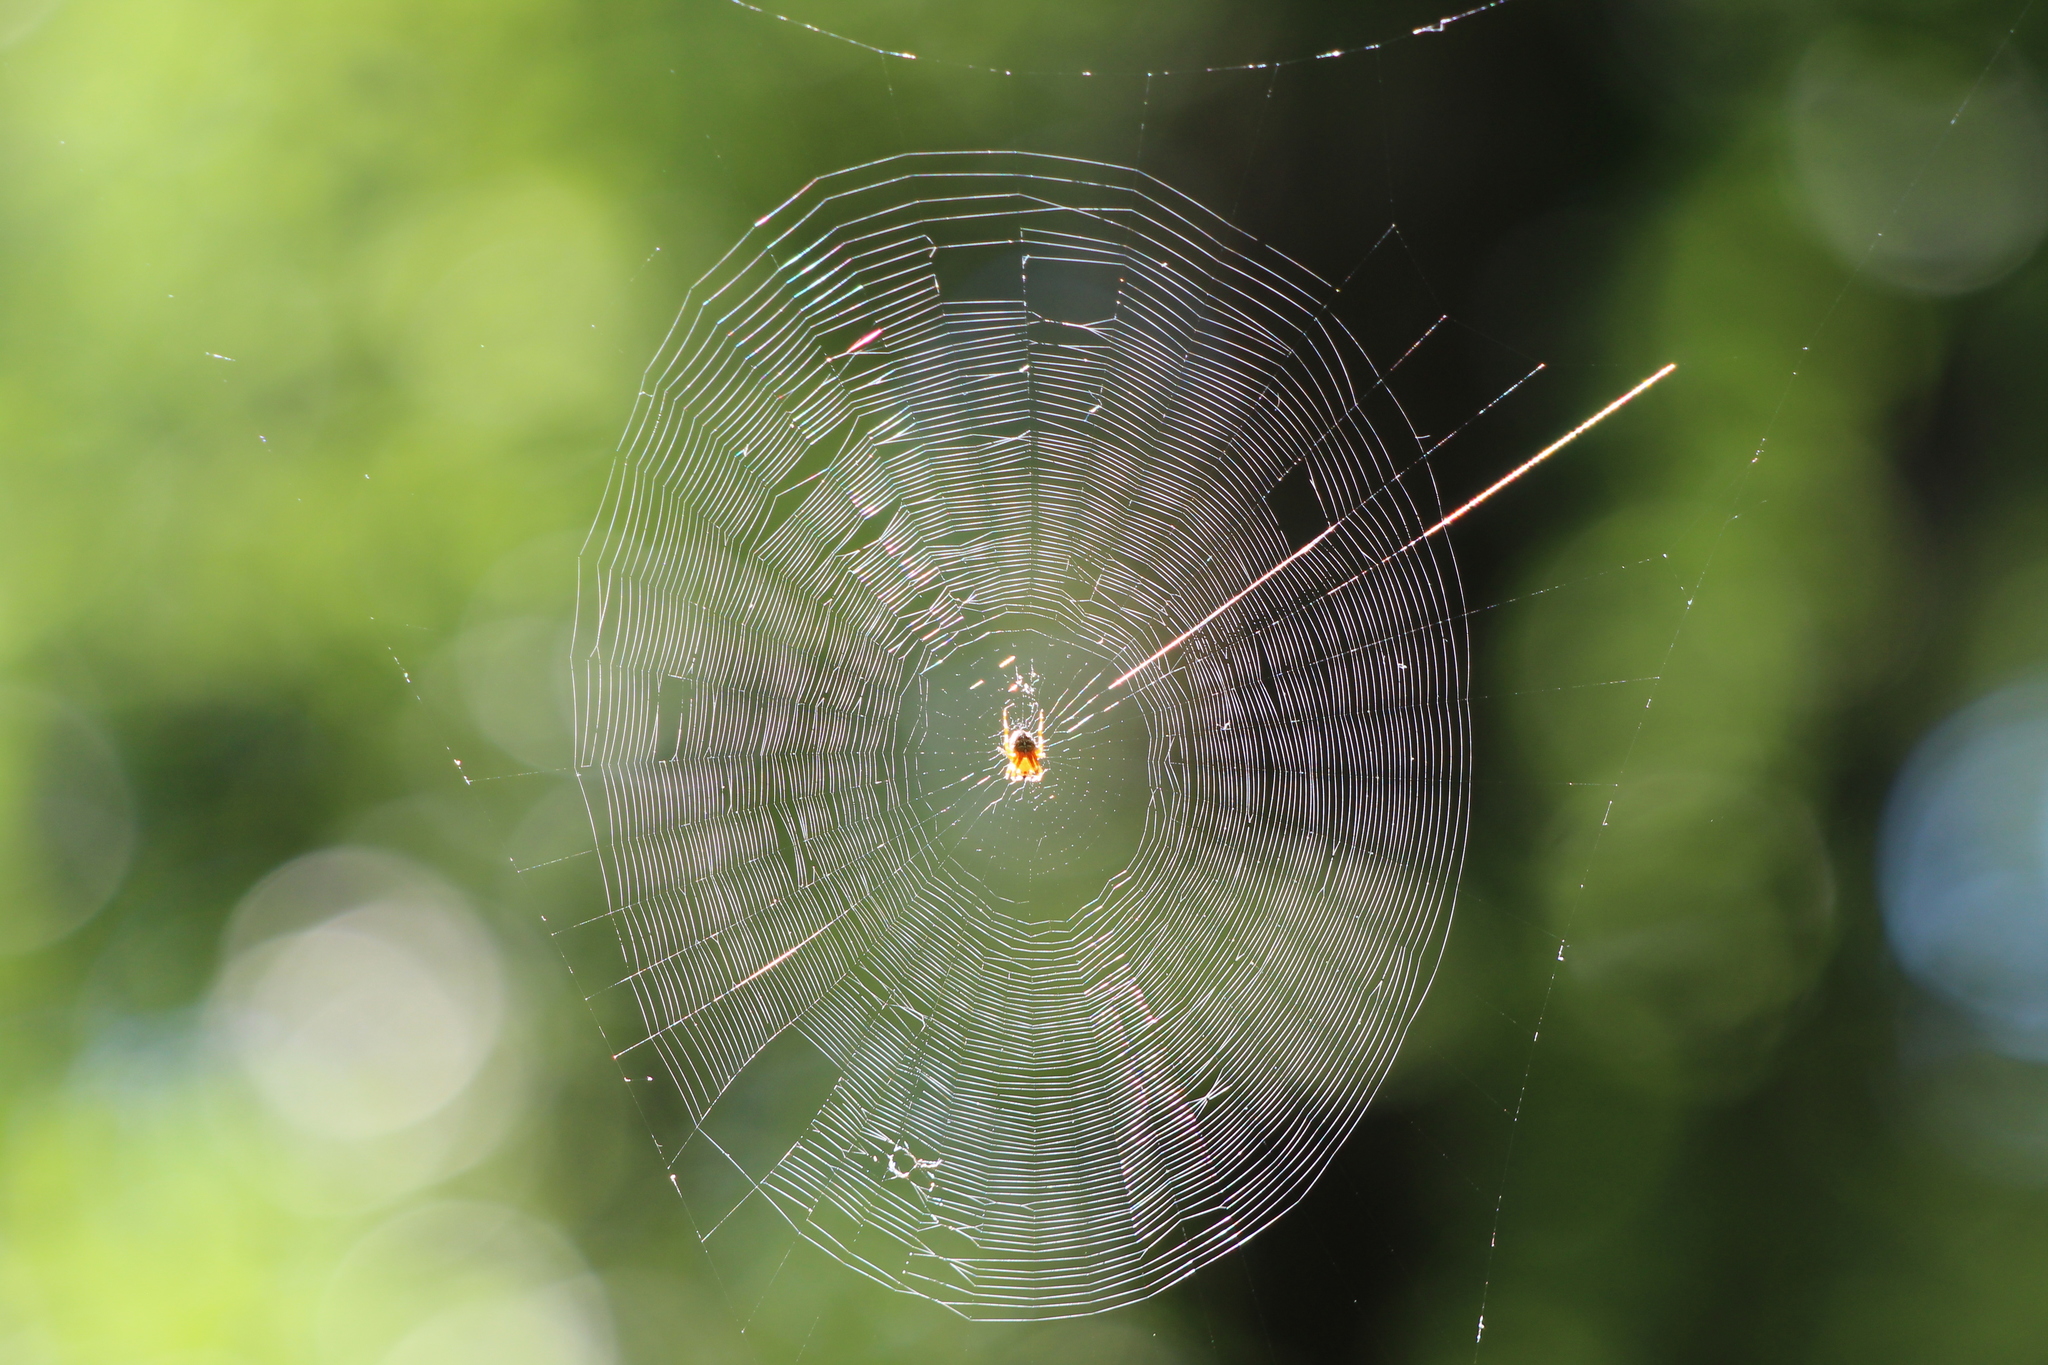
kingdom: Animalia
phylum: Arthropoda
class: Arachnida
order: Araneae
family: Araneidae
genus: Araneus
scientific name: Araneus diadematus
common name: Cross orbweaver
